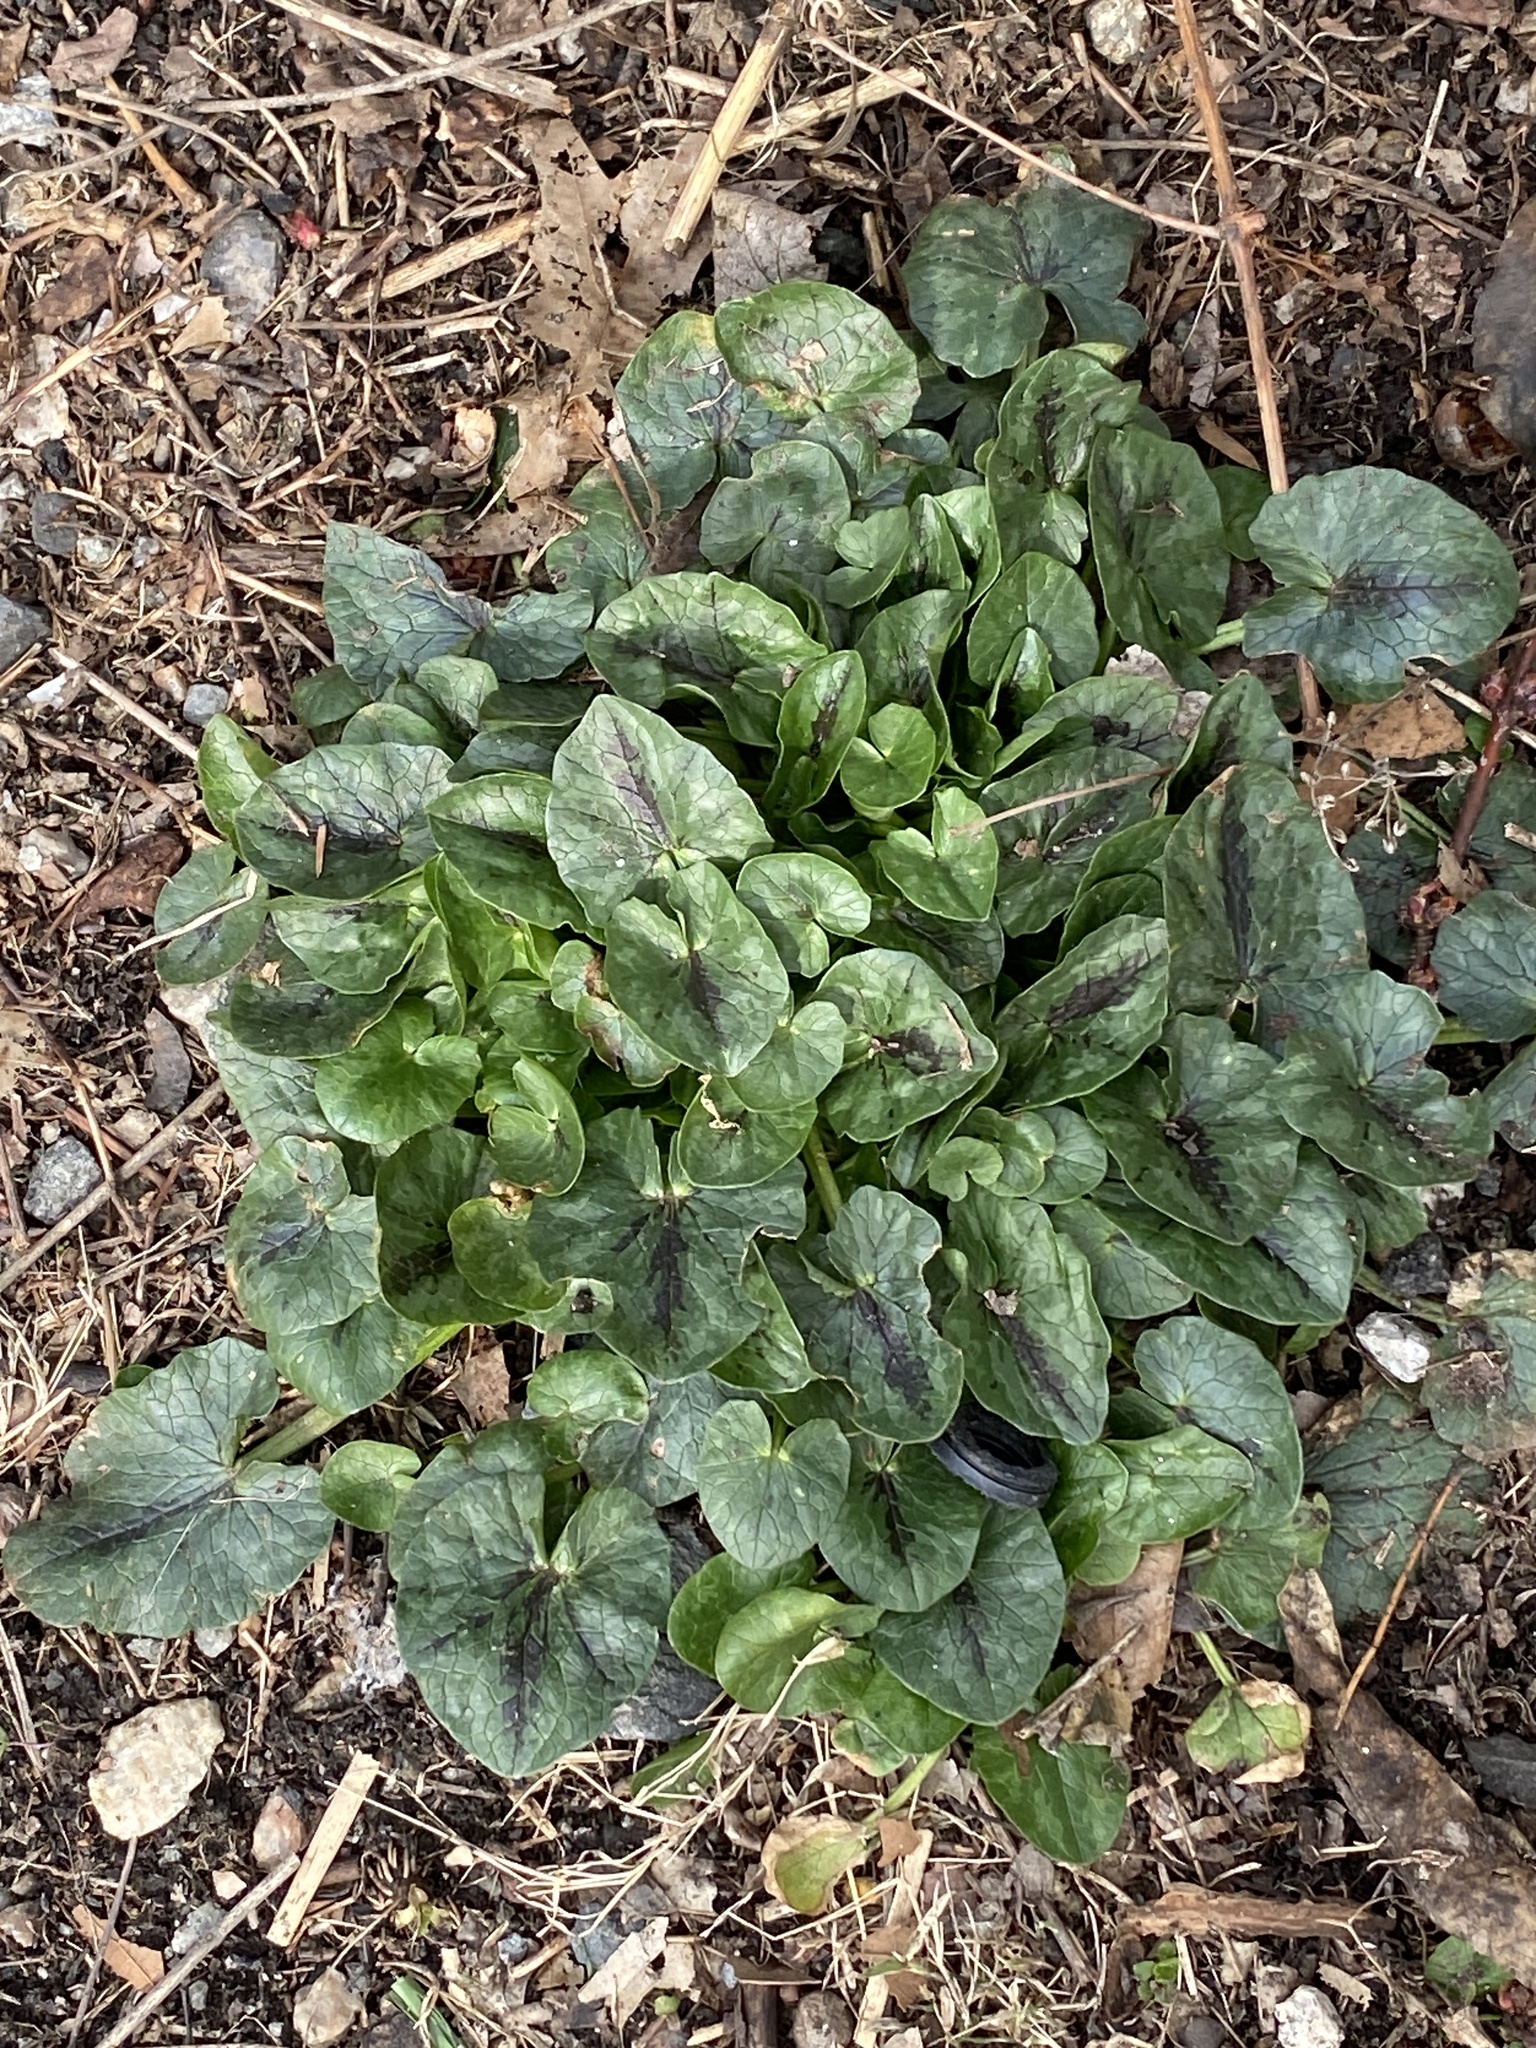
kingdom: Plantae
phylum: Tracheophyta
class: Magnoliopsida
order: Ranunculales
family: Ranunculaceae
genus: Ficaria
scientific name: Ficaria verna
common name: Lesser celandine
